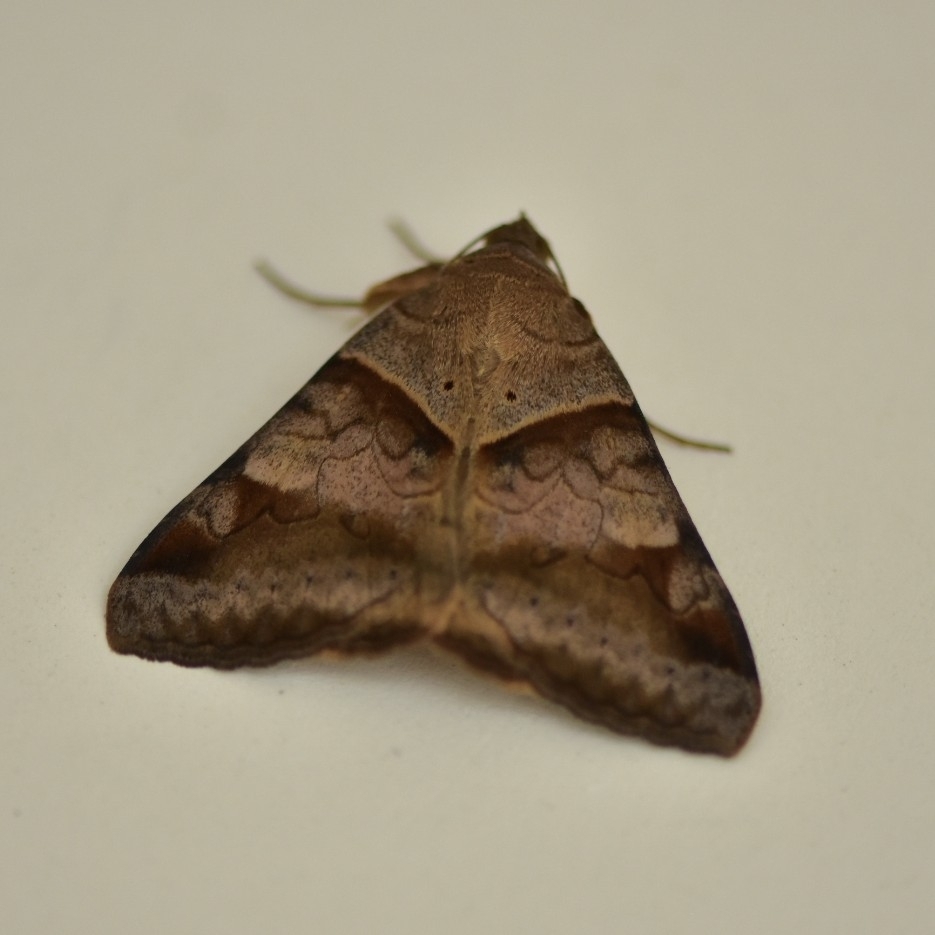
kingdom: Animalia
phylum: Arthropoda
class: Insecta
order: Lepidoptera
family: Erebidae
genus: Mocis
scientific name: Mocis undata
